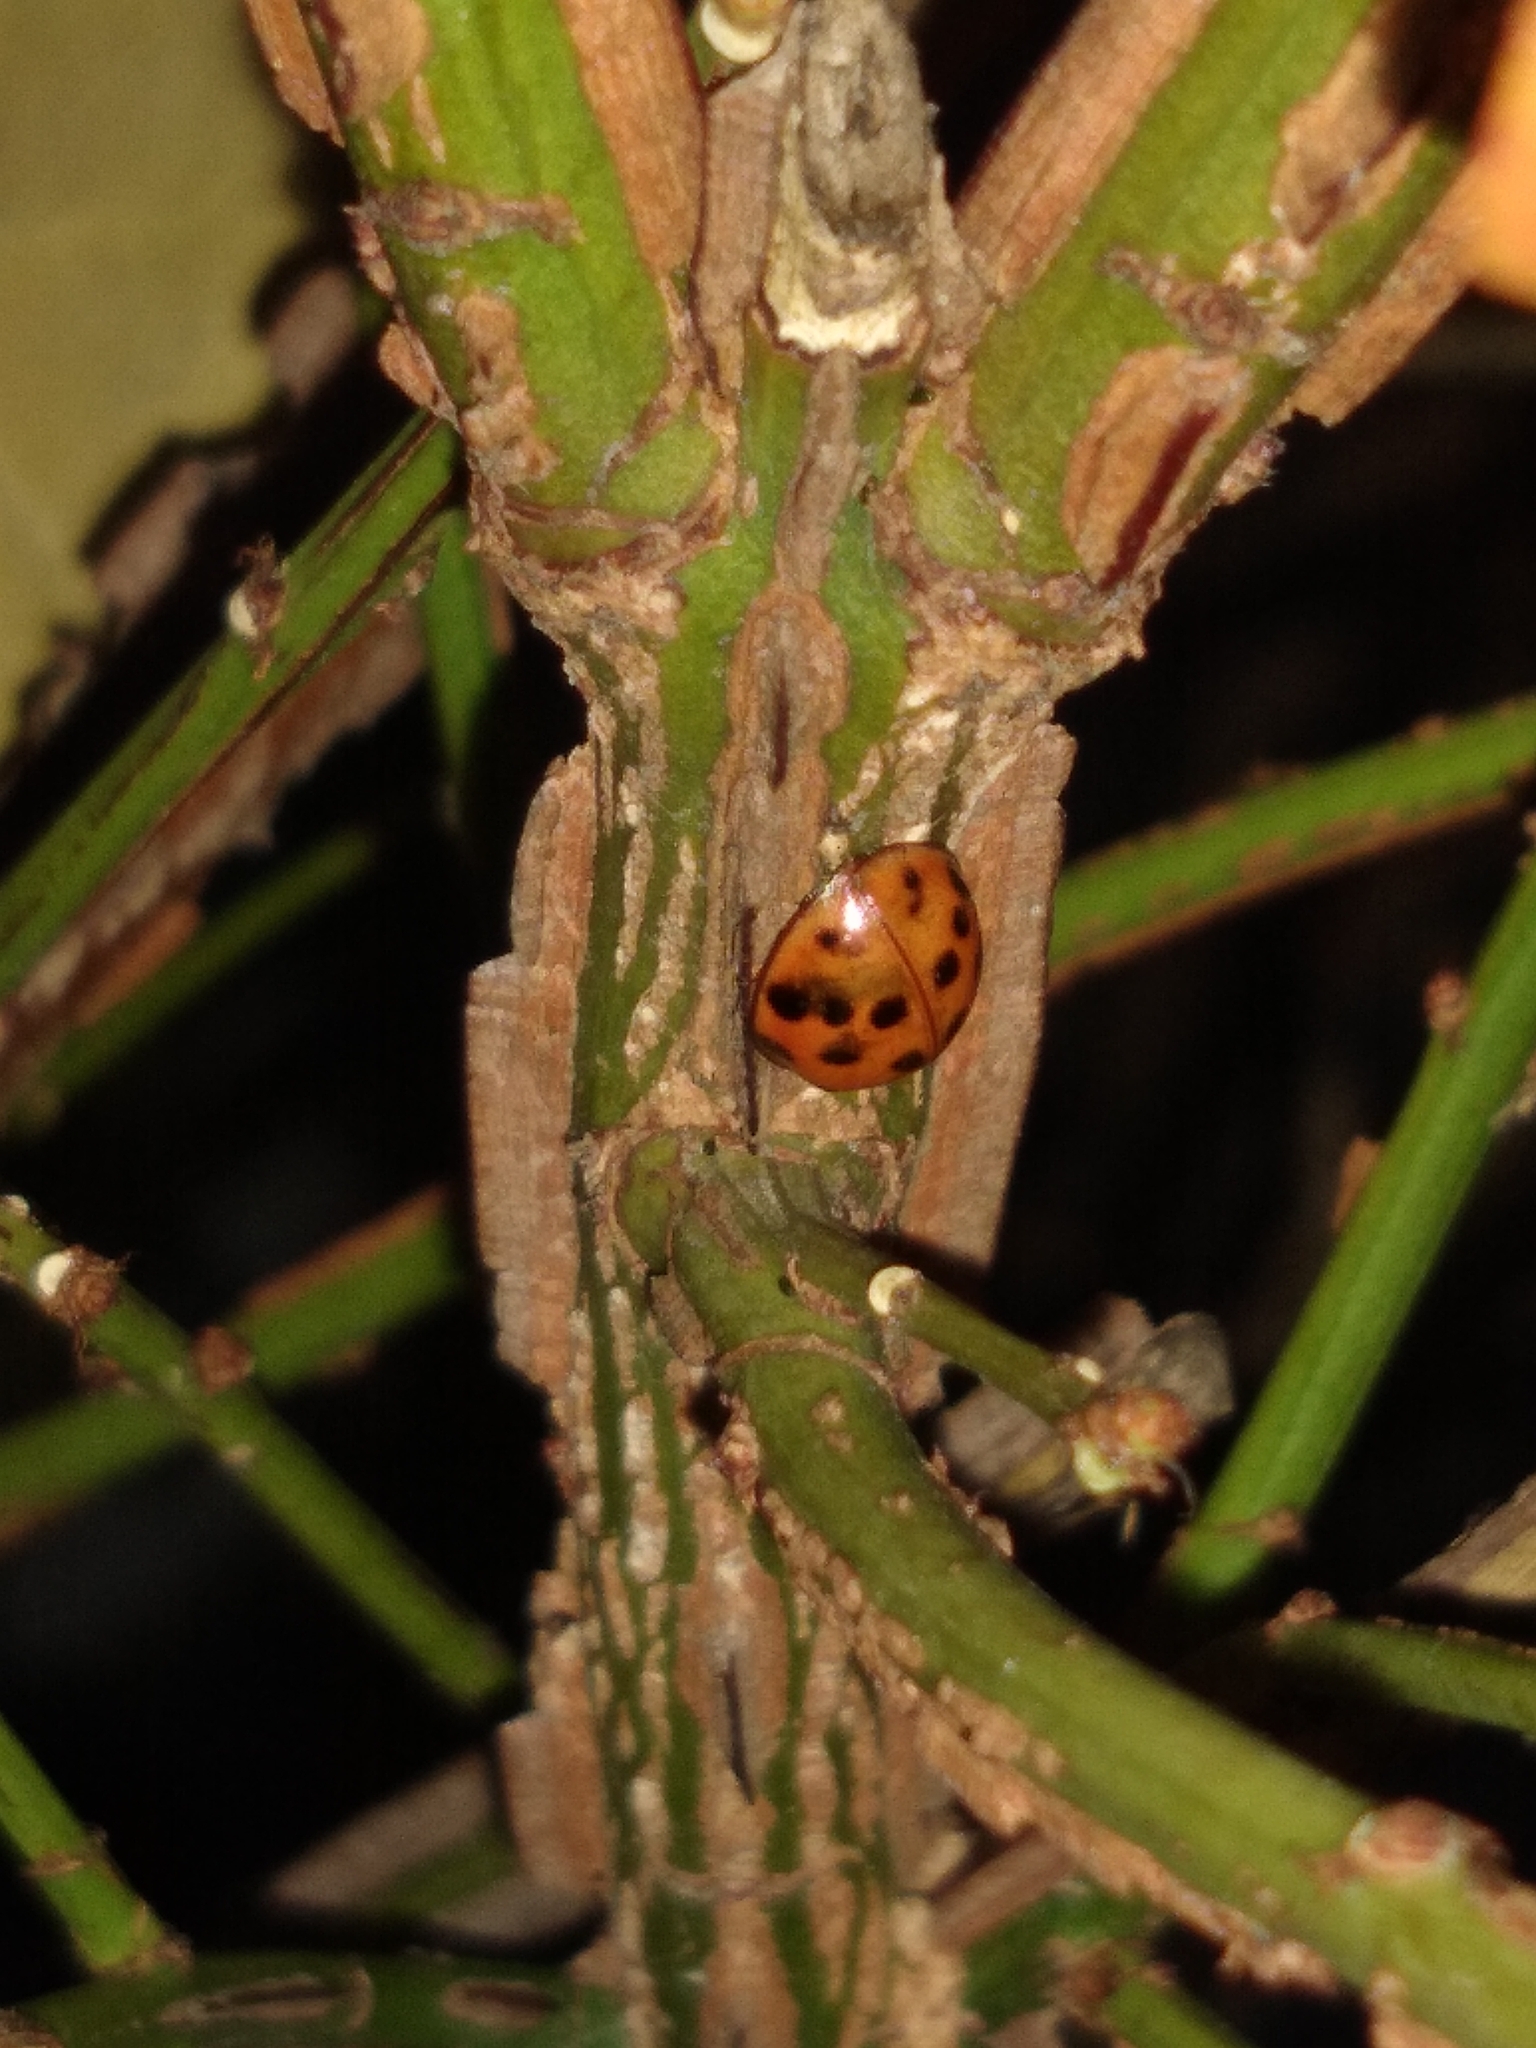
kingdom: Animalia
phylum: Arthropoda
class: Insecta
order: Coleoptera
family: Coccinellidae
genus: Harmonia
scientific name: Harmonia axyridis
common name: Harlequin ladybird
